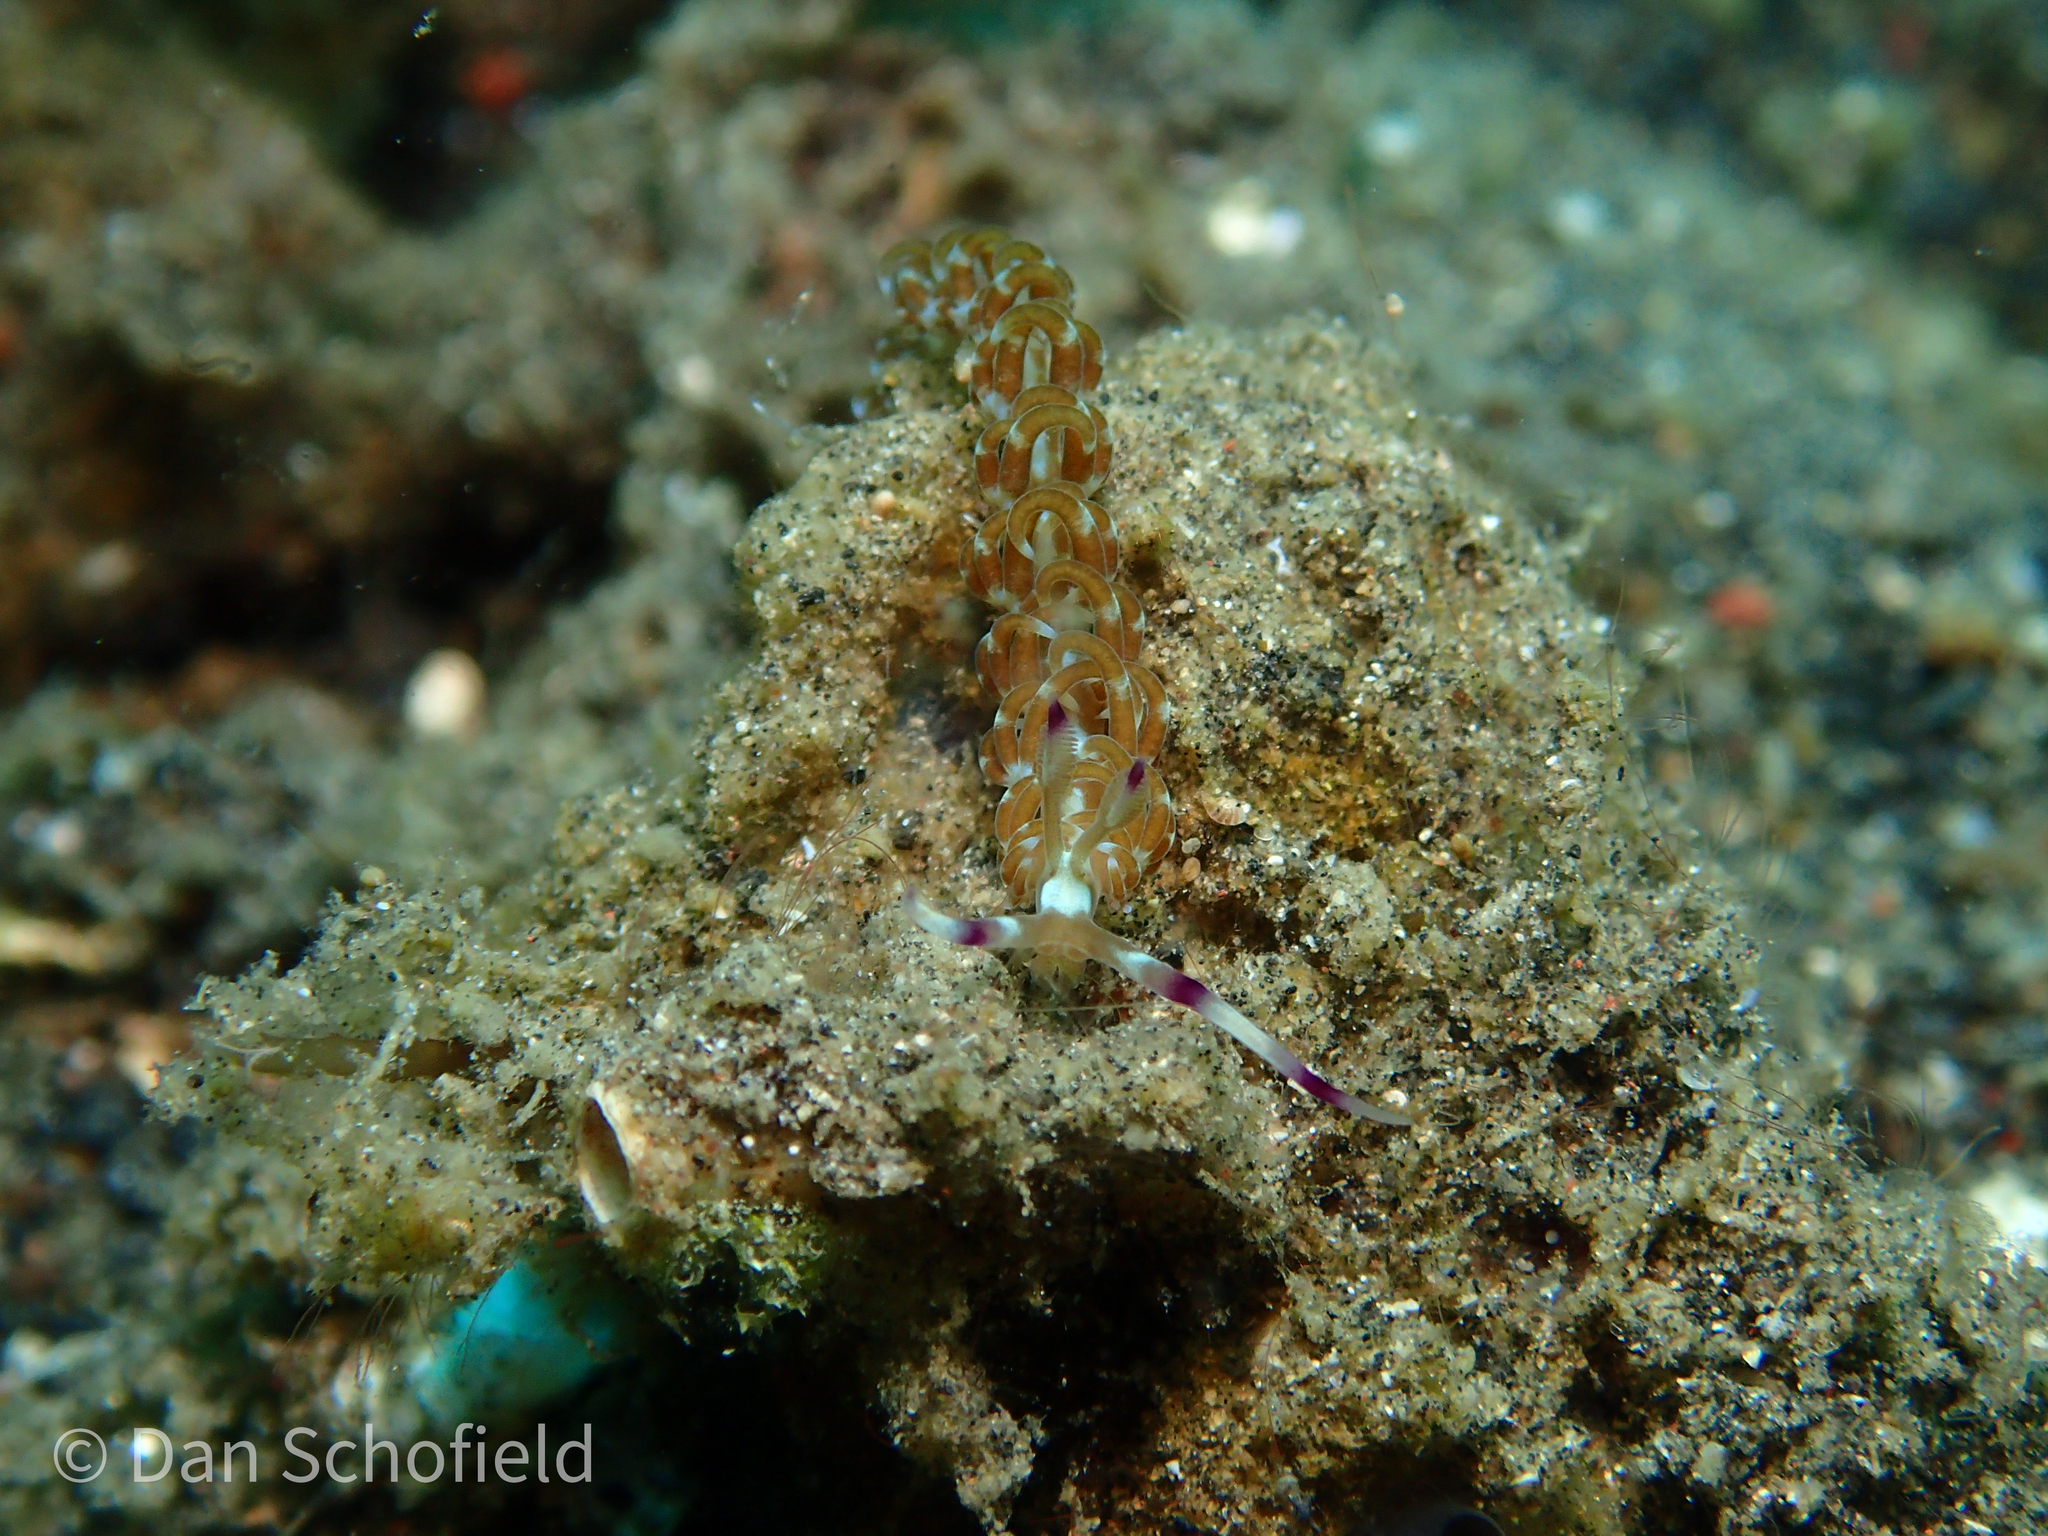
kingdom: Animalia
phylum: Mollusca
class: Gastropoda
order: Nudibranchia
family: Facelinidae
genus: Pteraeolidia
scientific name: Pteraeolidia semperi
